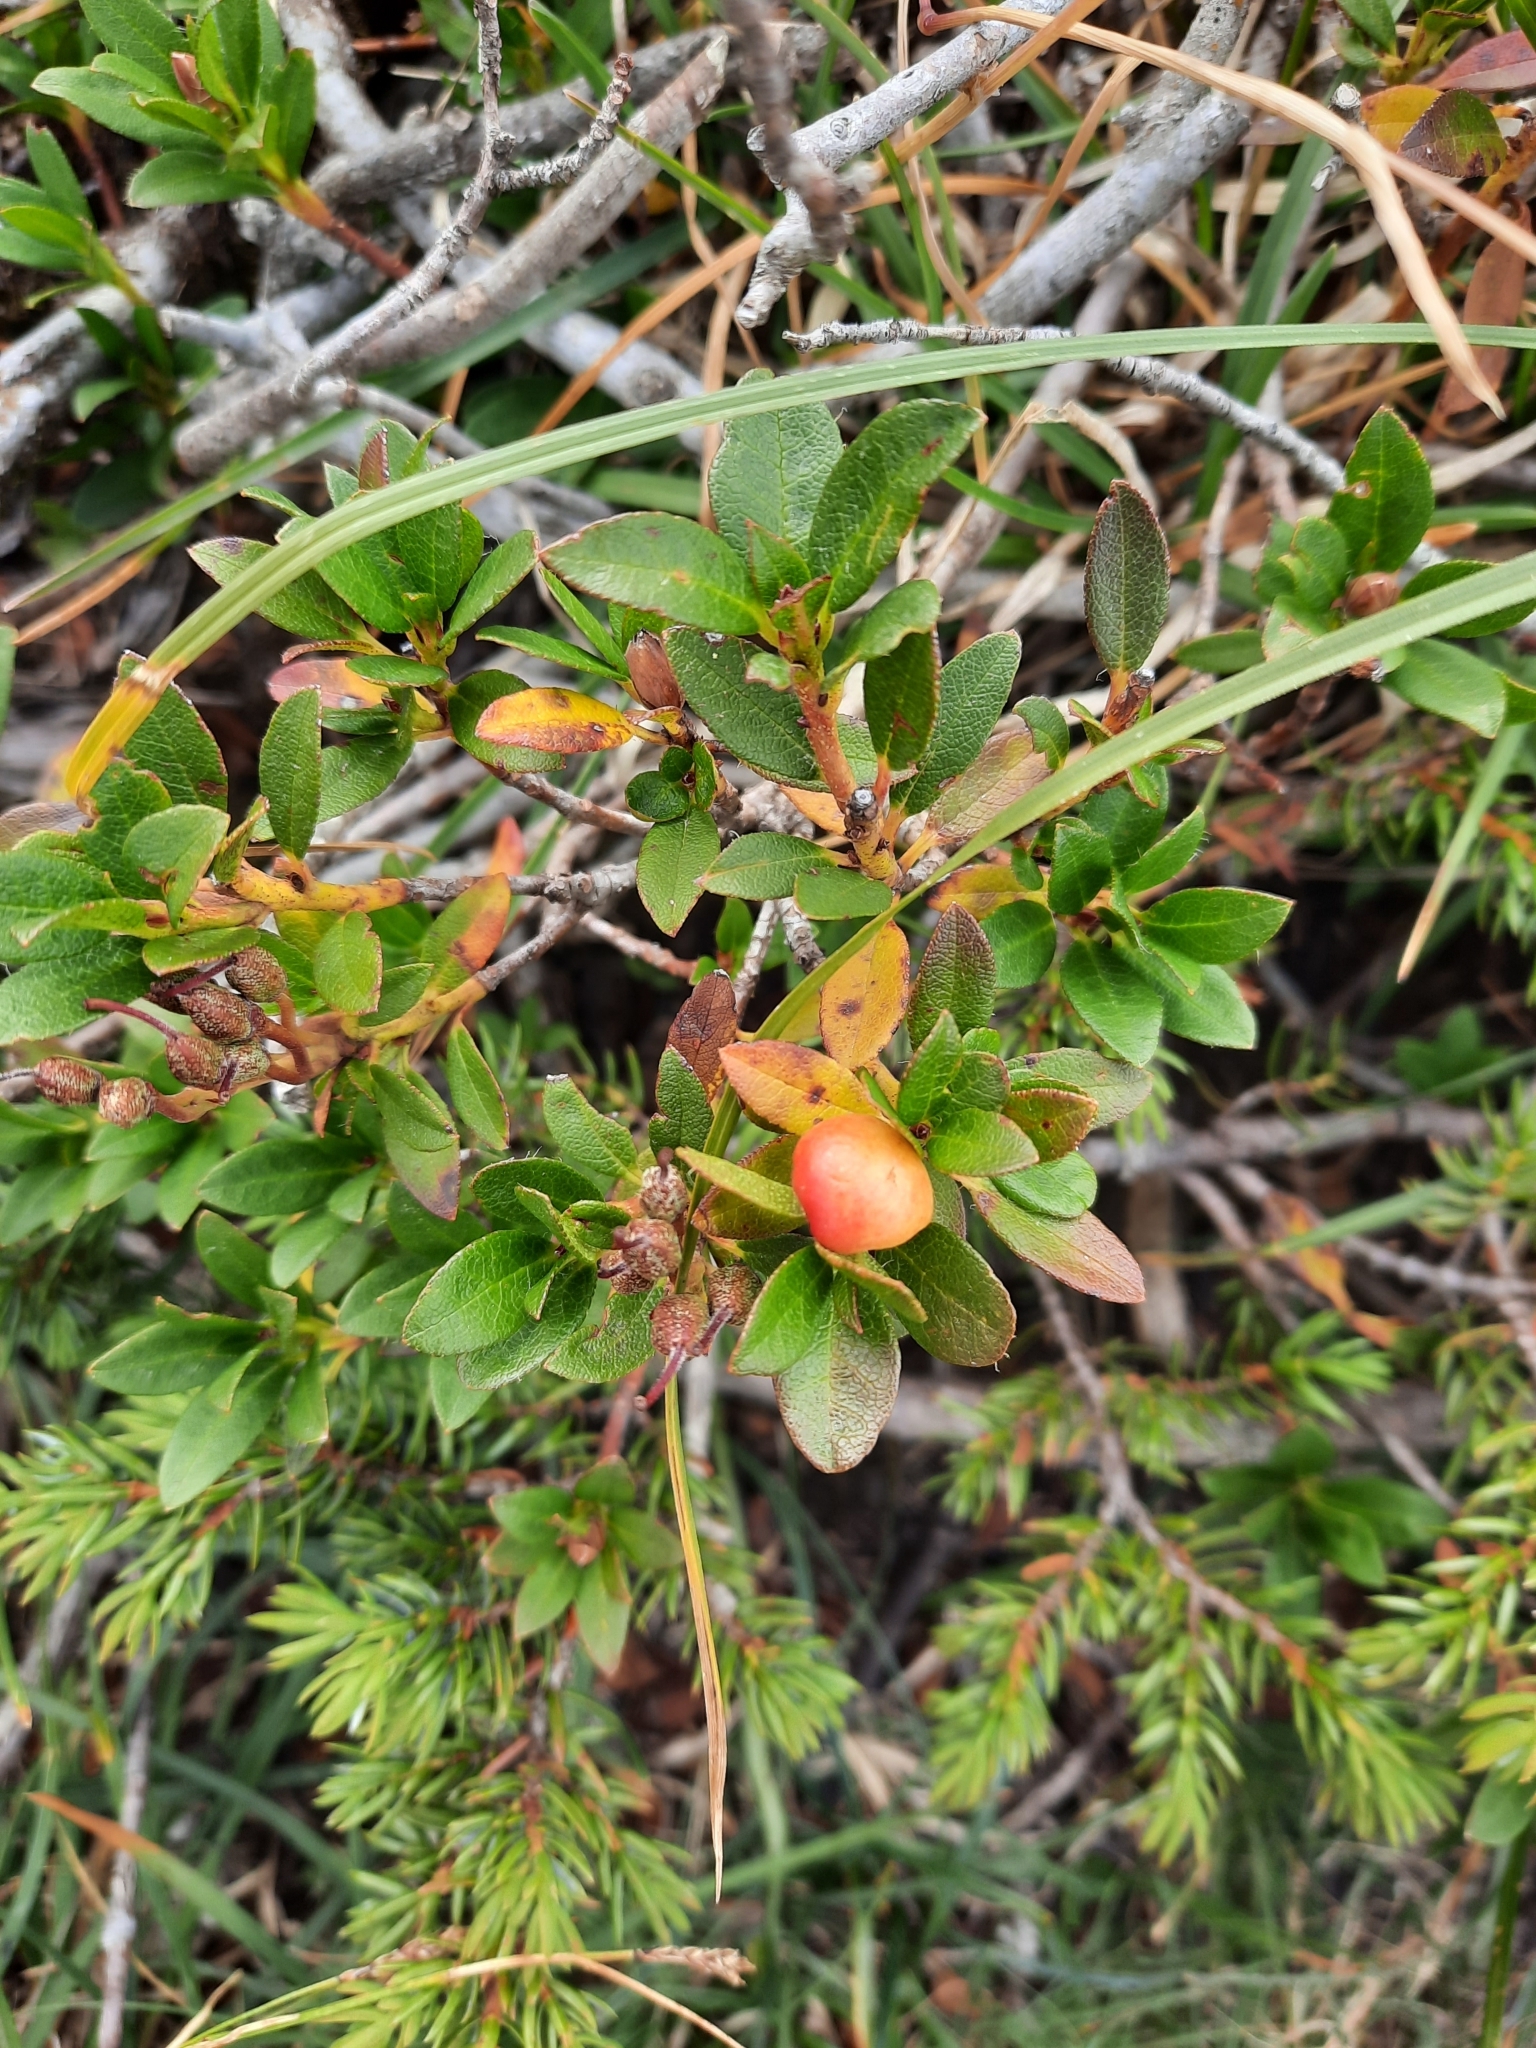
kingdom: Plantae
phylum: Tracheophyta
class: Magnoliopsida
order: Ericales
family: Ericaceae
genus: Rhododendron
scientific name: Rhododendron hirsutum
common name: Hairy alpenrose
